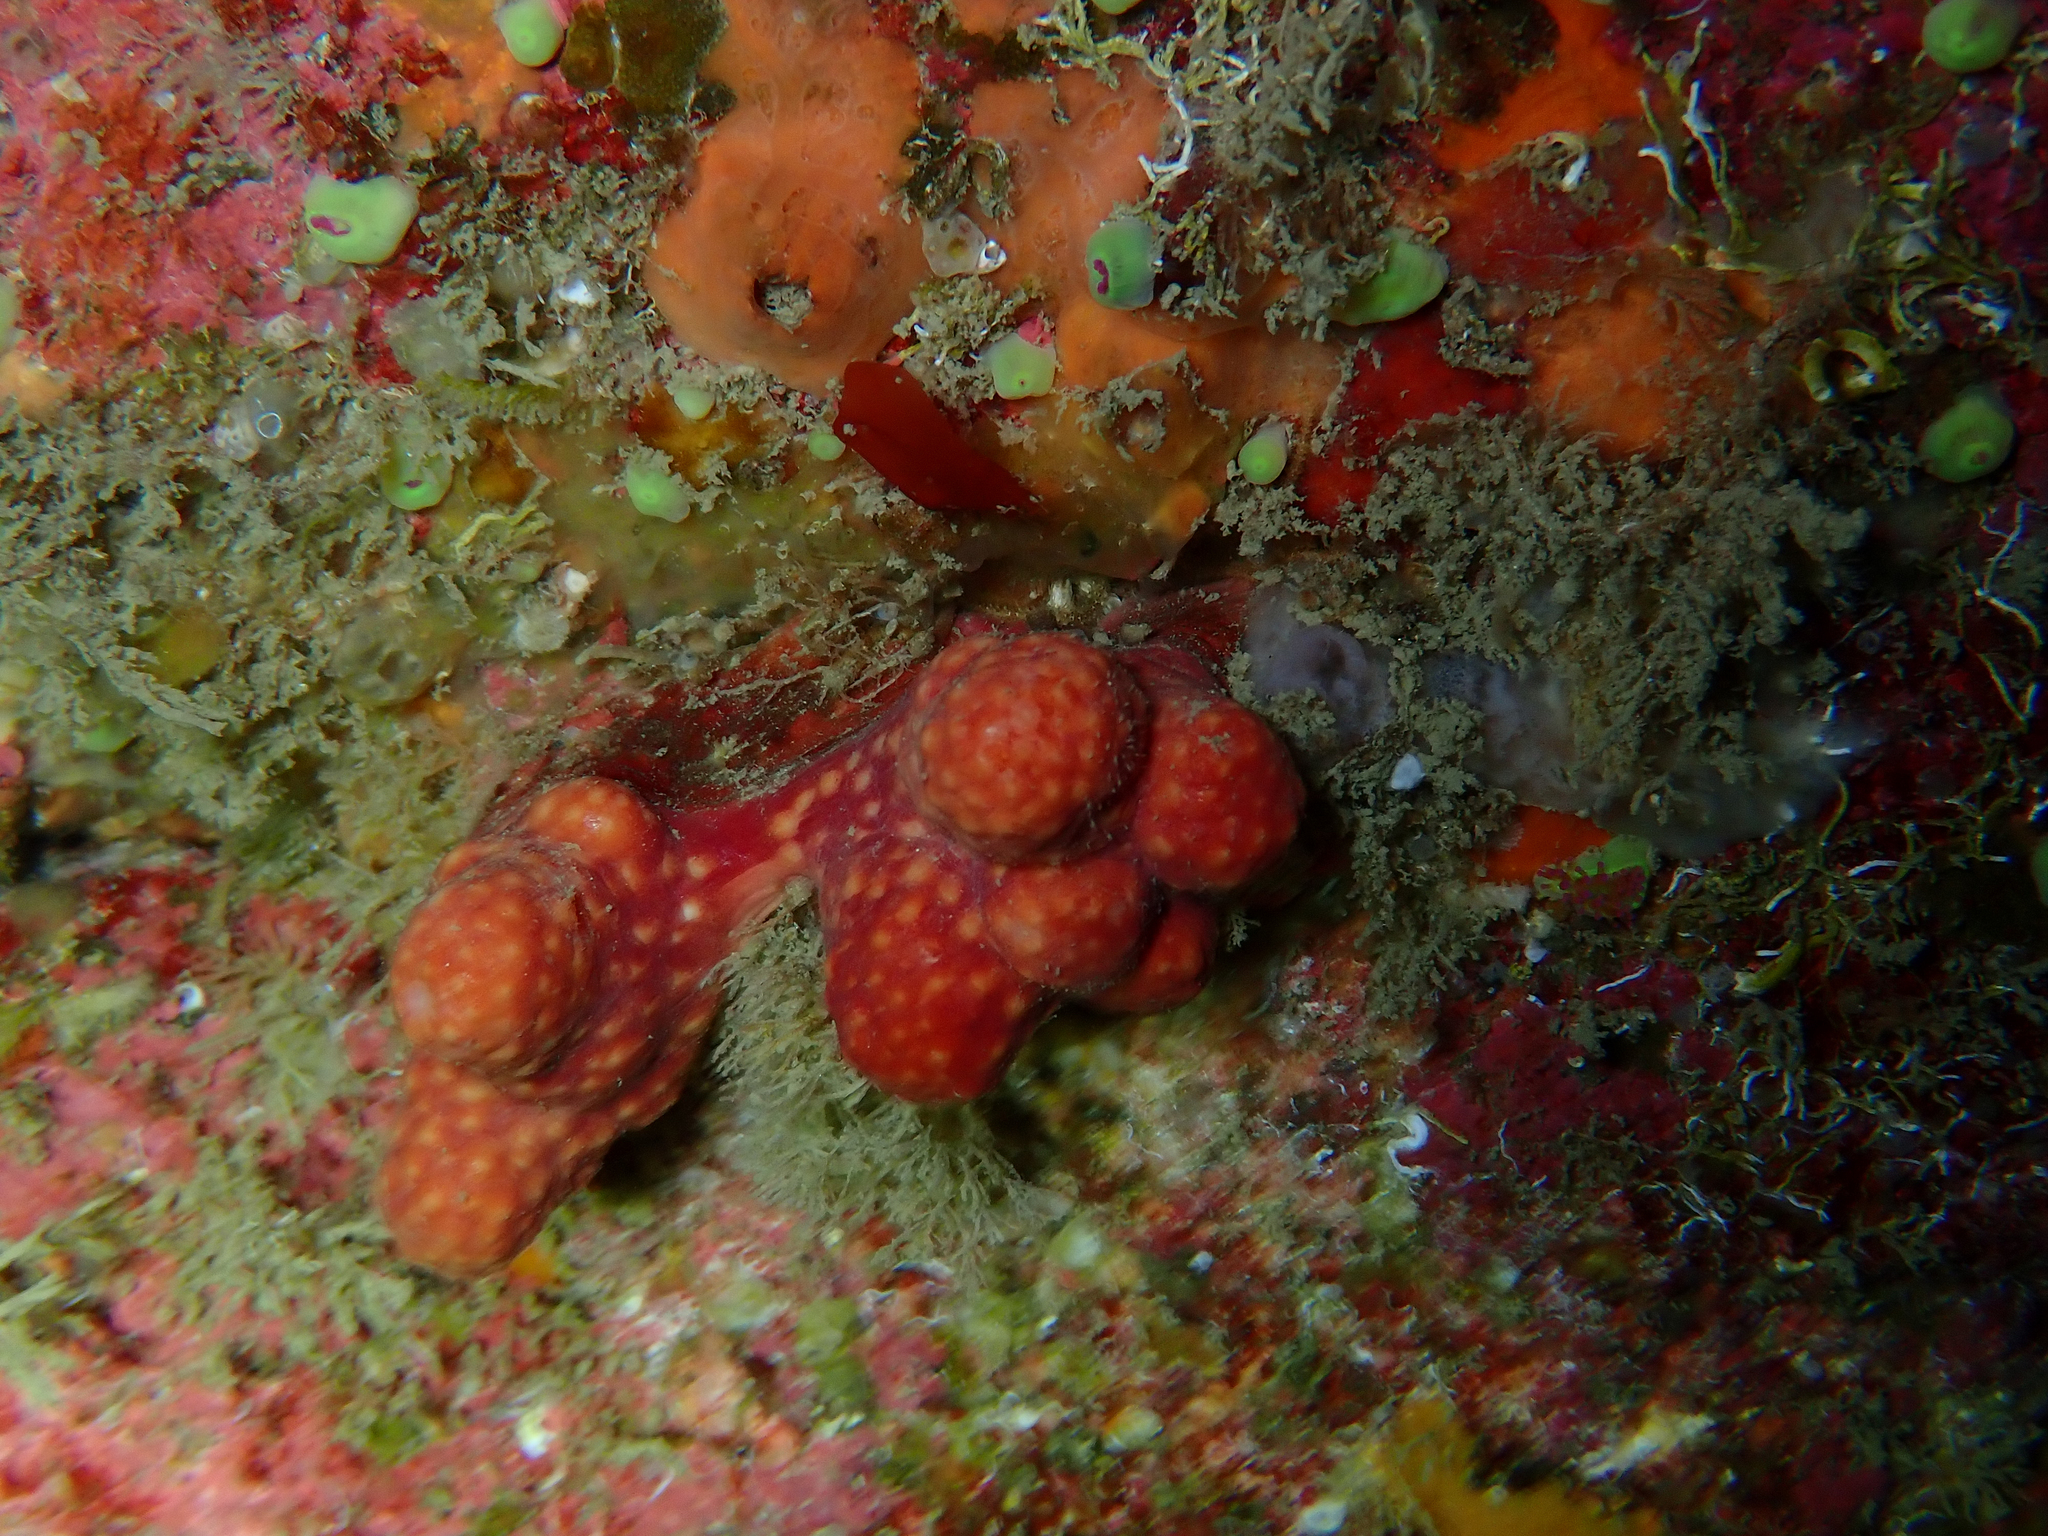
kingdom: Animalia
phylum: Cnidaria
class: Anthozoa
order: Malacalcyonacea
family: Alcyoniidae
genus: Alcyonium
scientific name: Alcyonium glomeratum
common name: Red fingers
